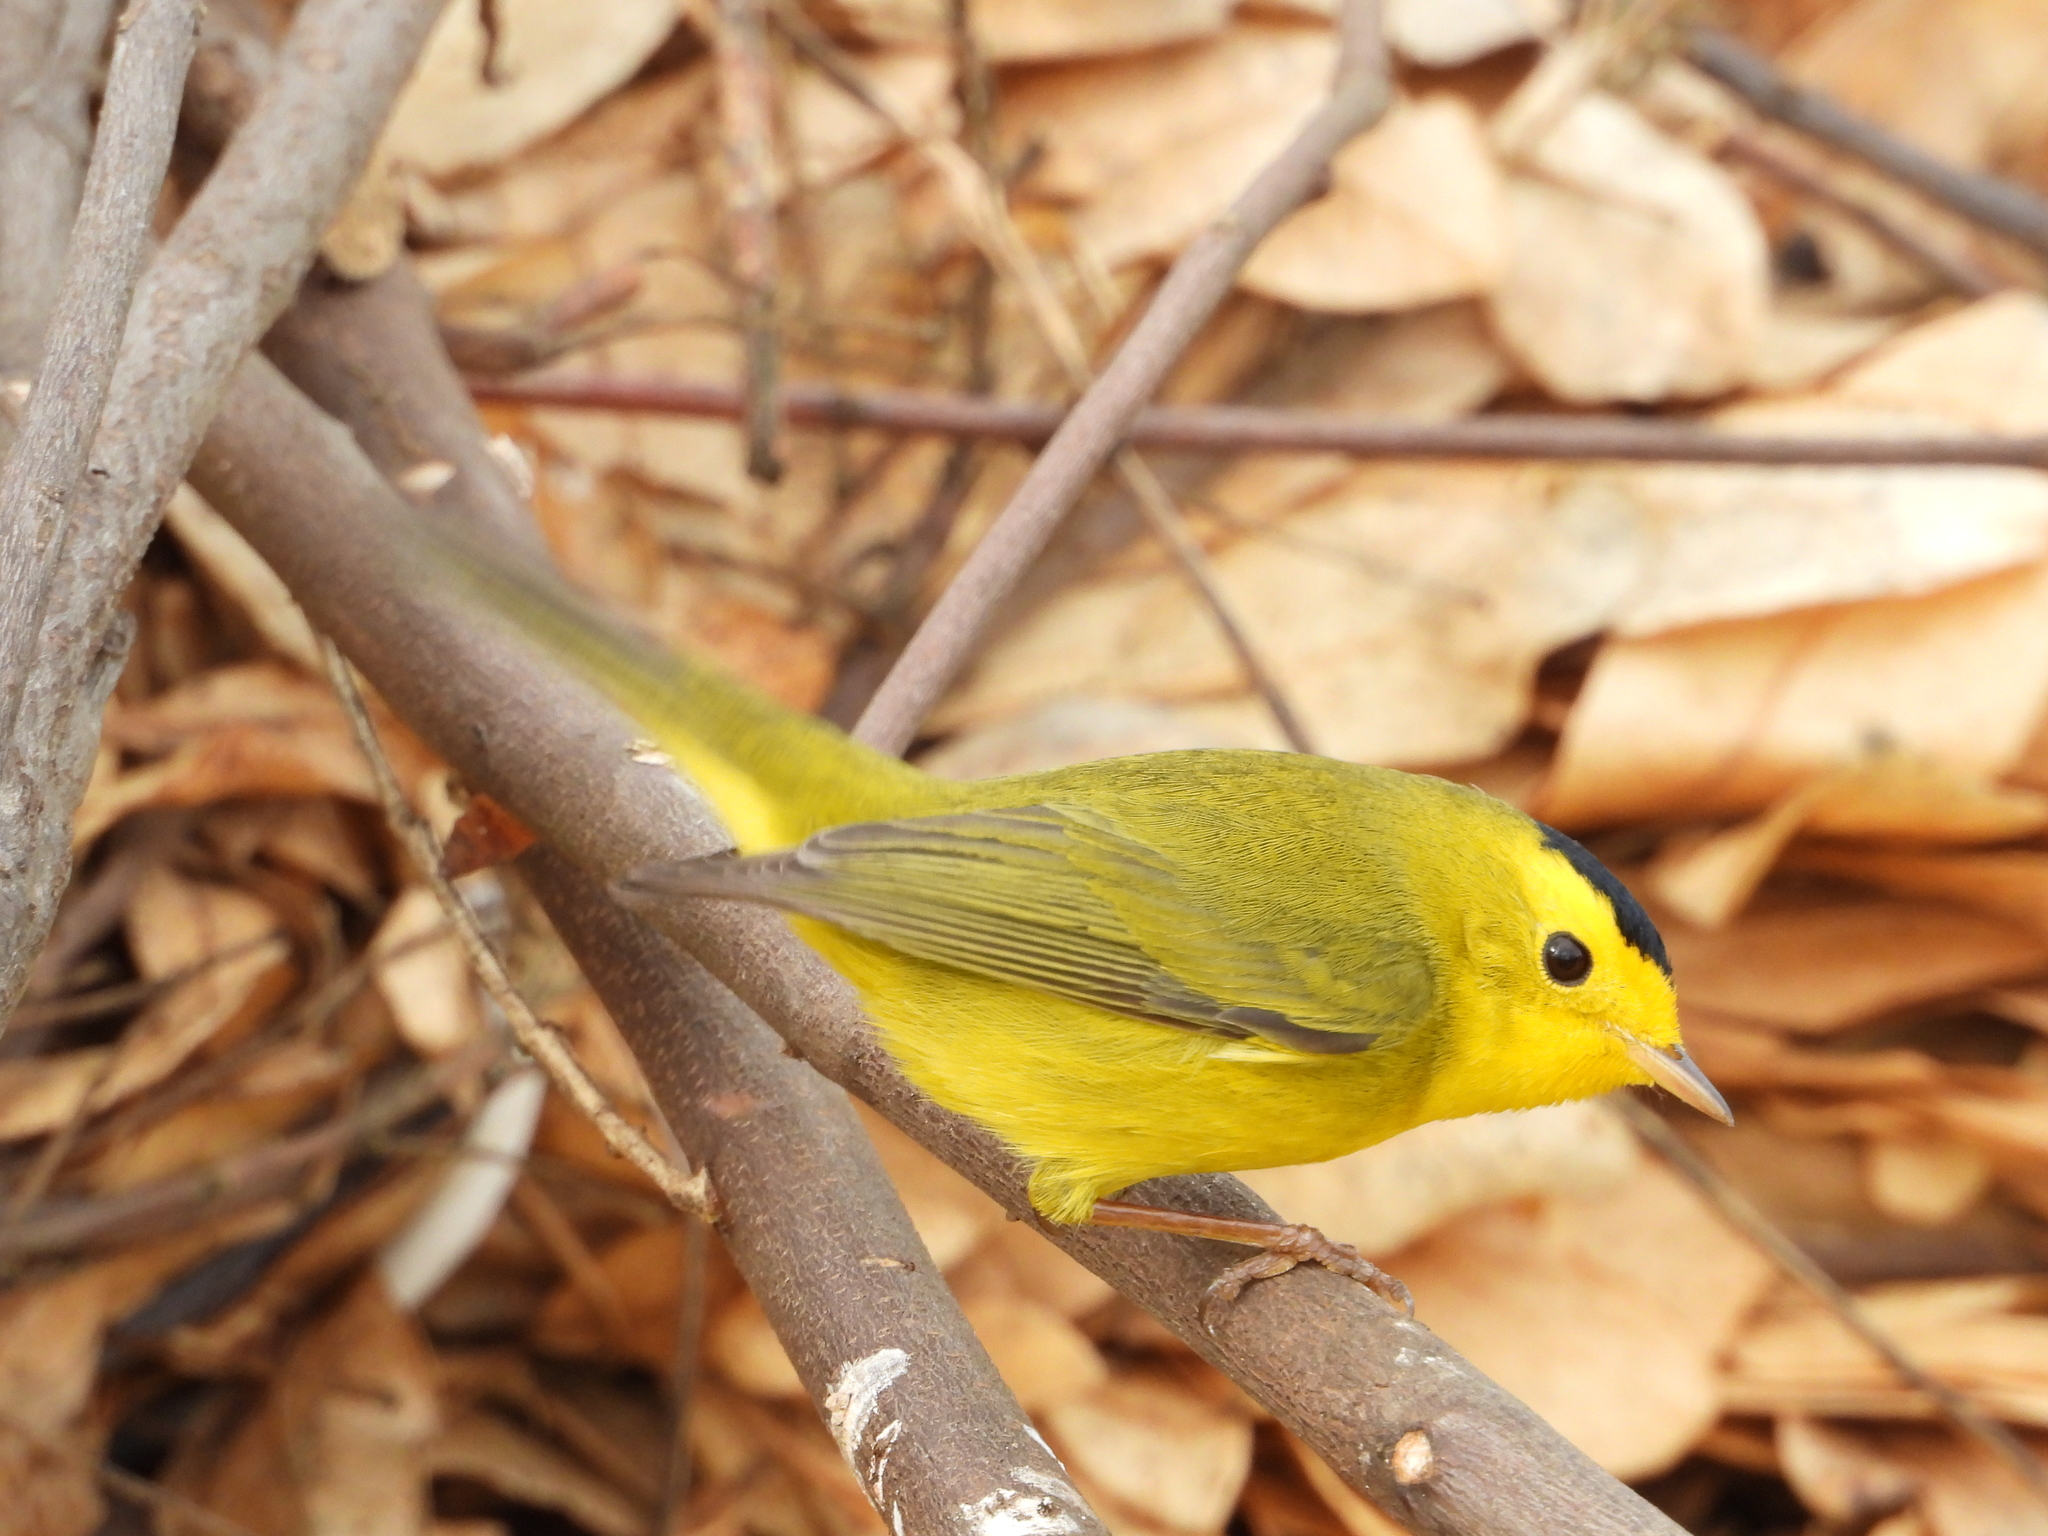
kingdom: Animalia
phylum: Chordata
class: Aves
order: Passeriformes
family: Parulidae
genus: Cardellina
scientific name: Cardellina pusilla
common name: Wilson's warbler
